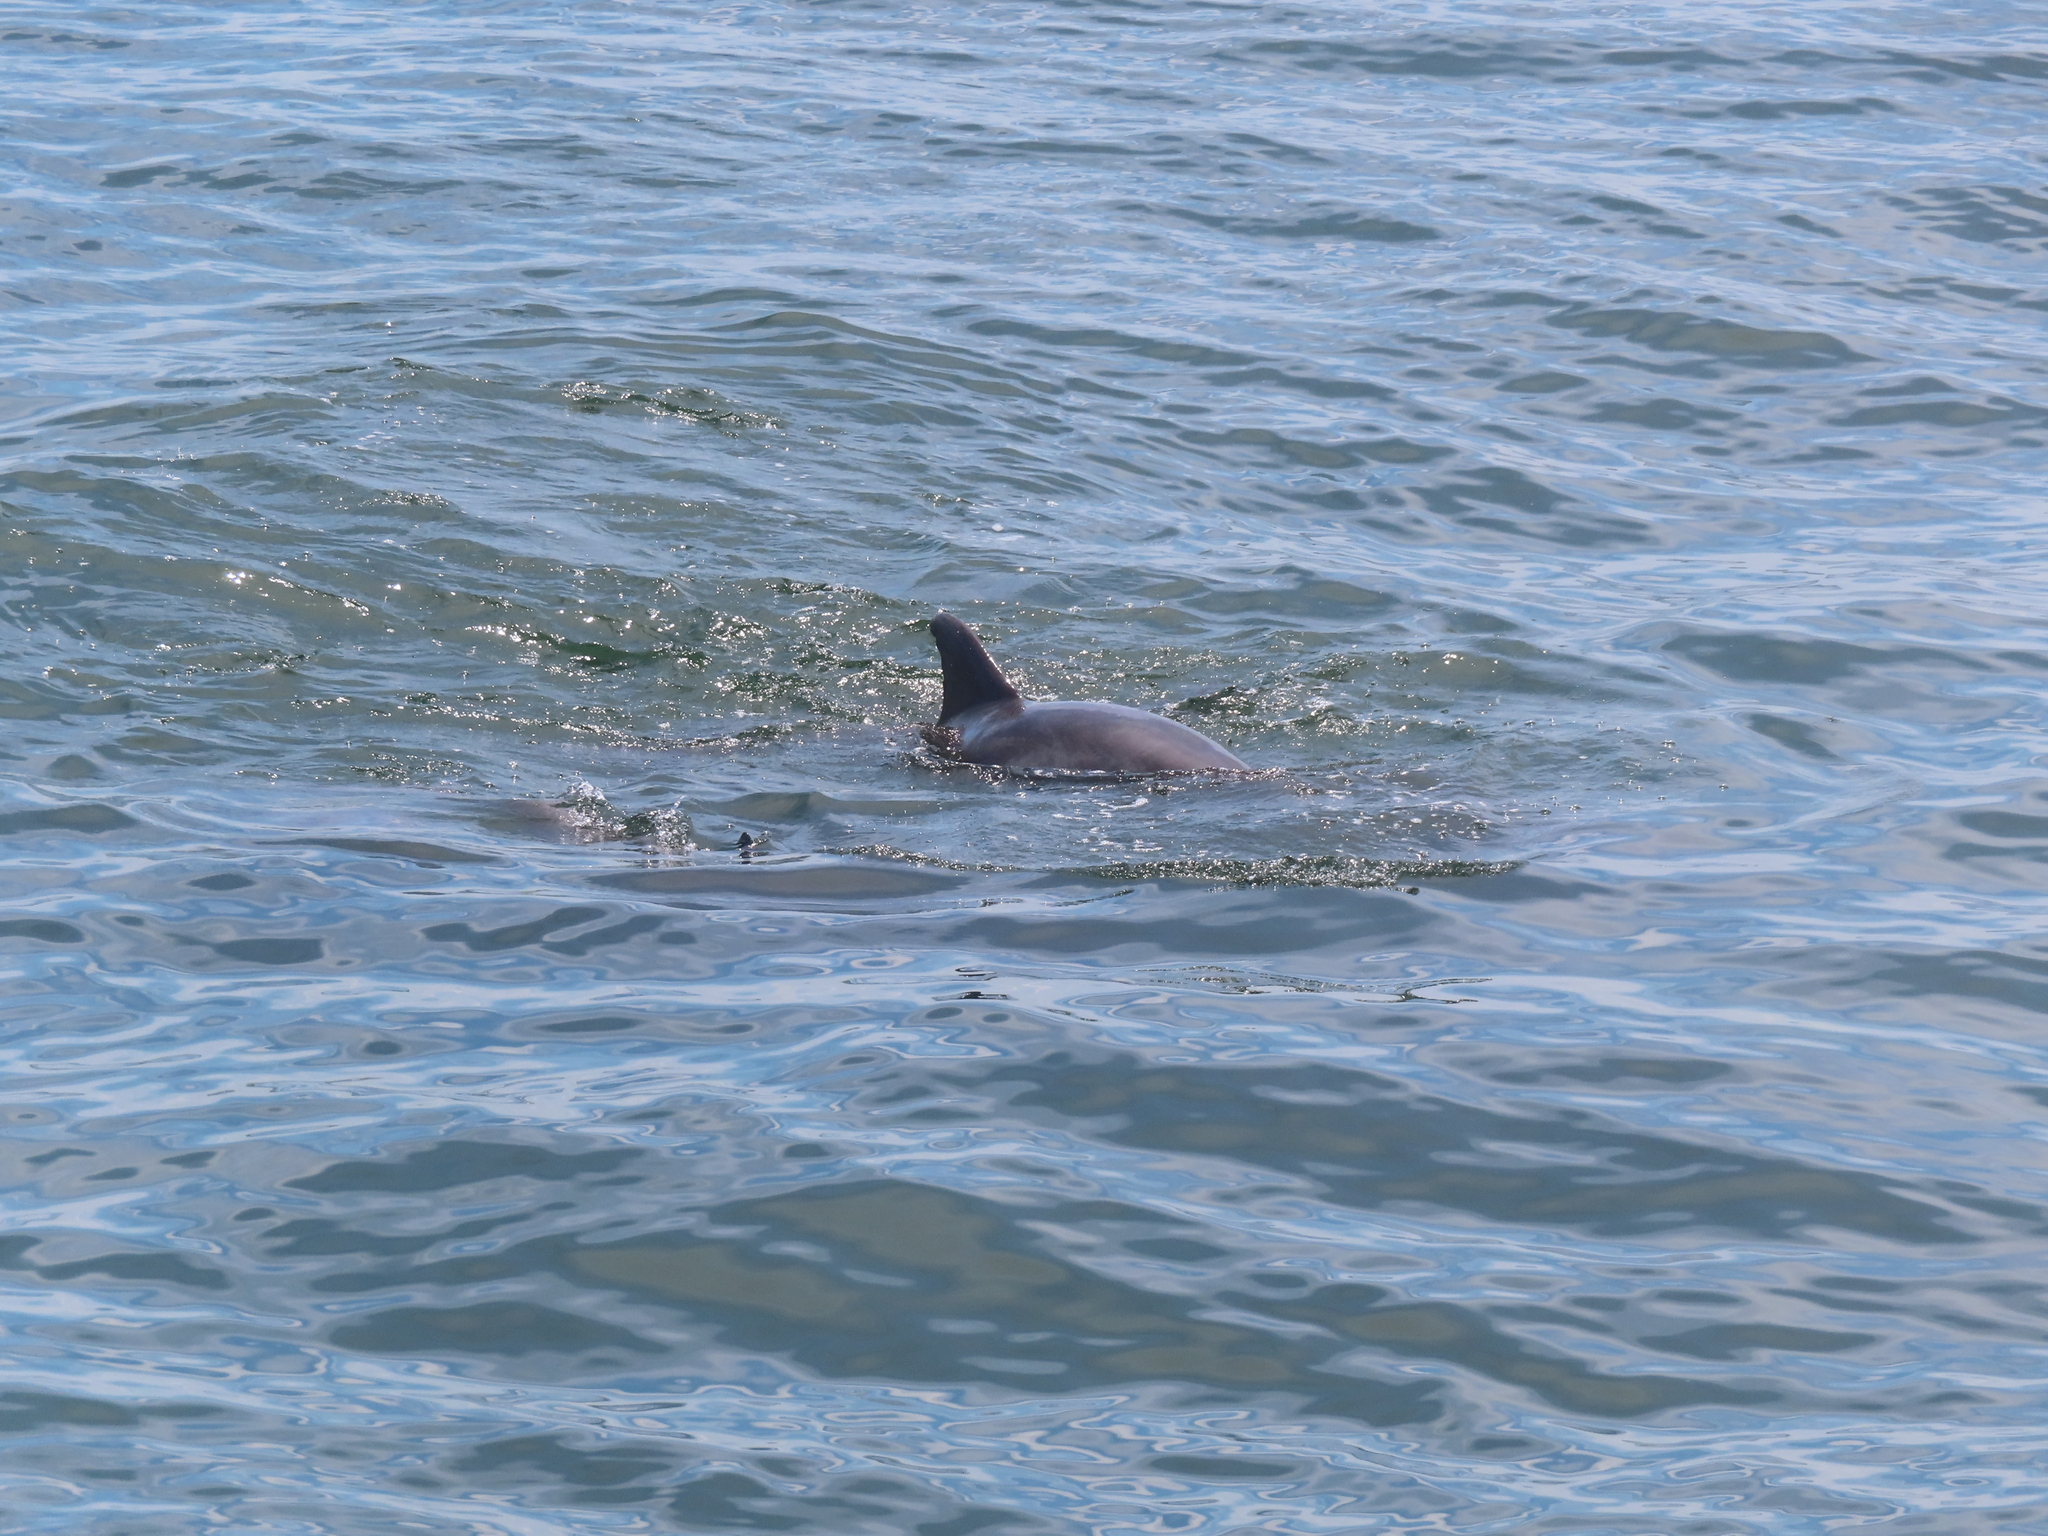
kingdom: Animalia
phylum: Chordata
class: Mammalia
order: Cetacea
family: Delphinidae
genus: Tursiops
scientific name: Tursiops truncatus
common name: Bottlenose dolphin
